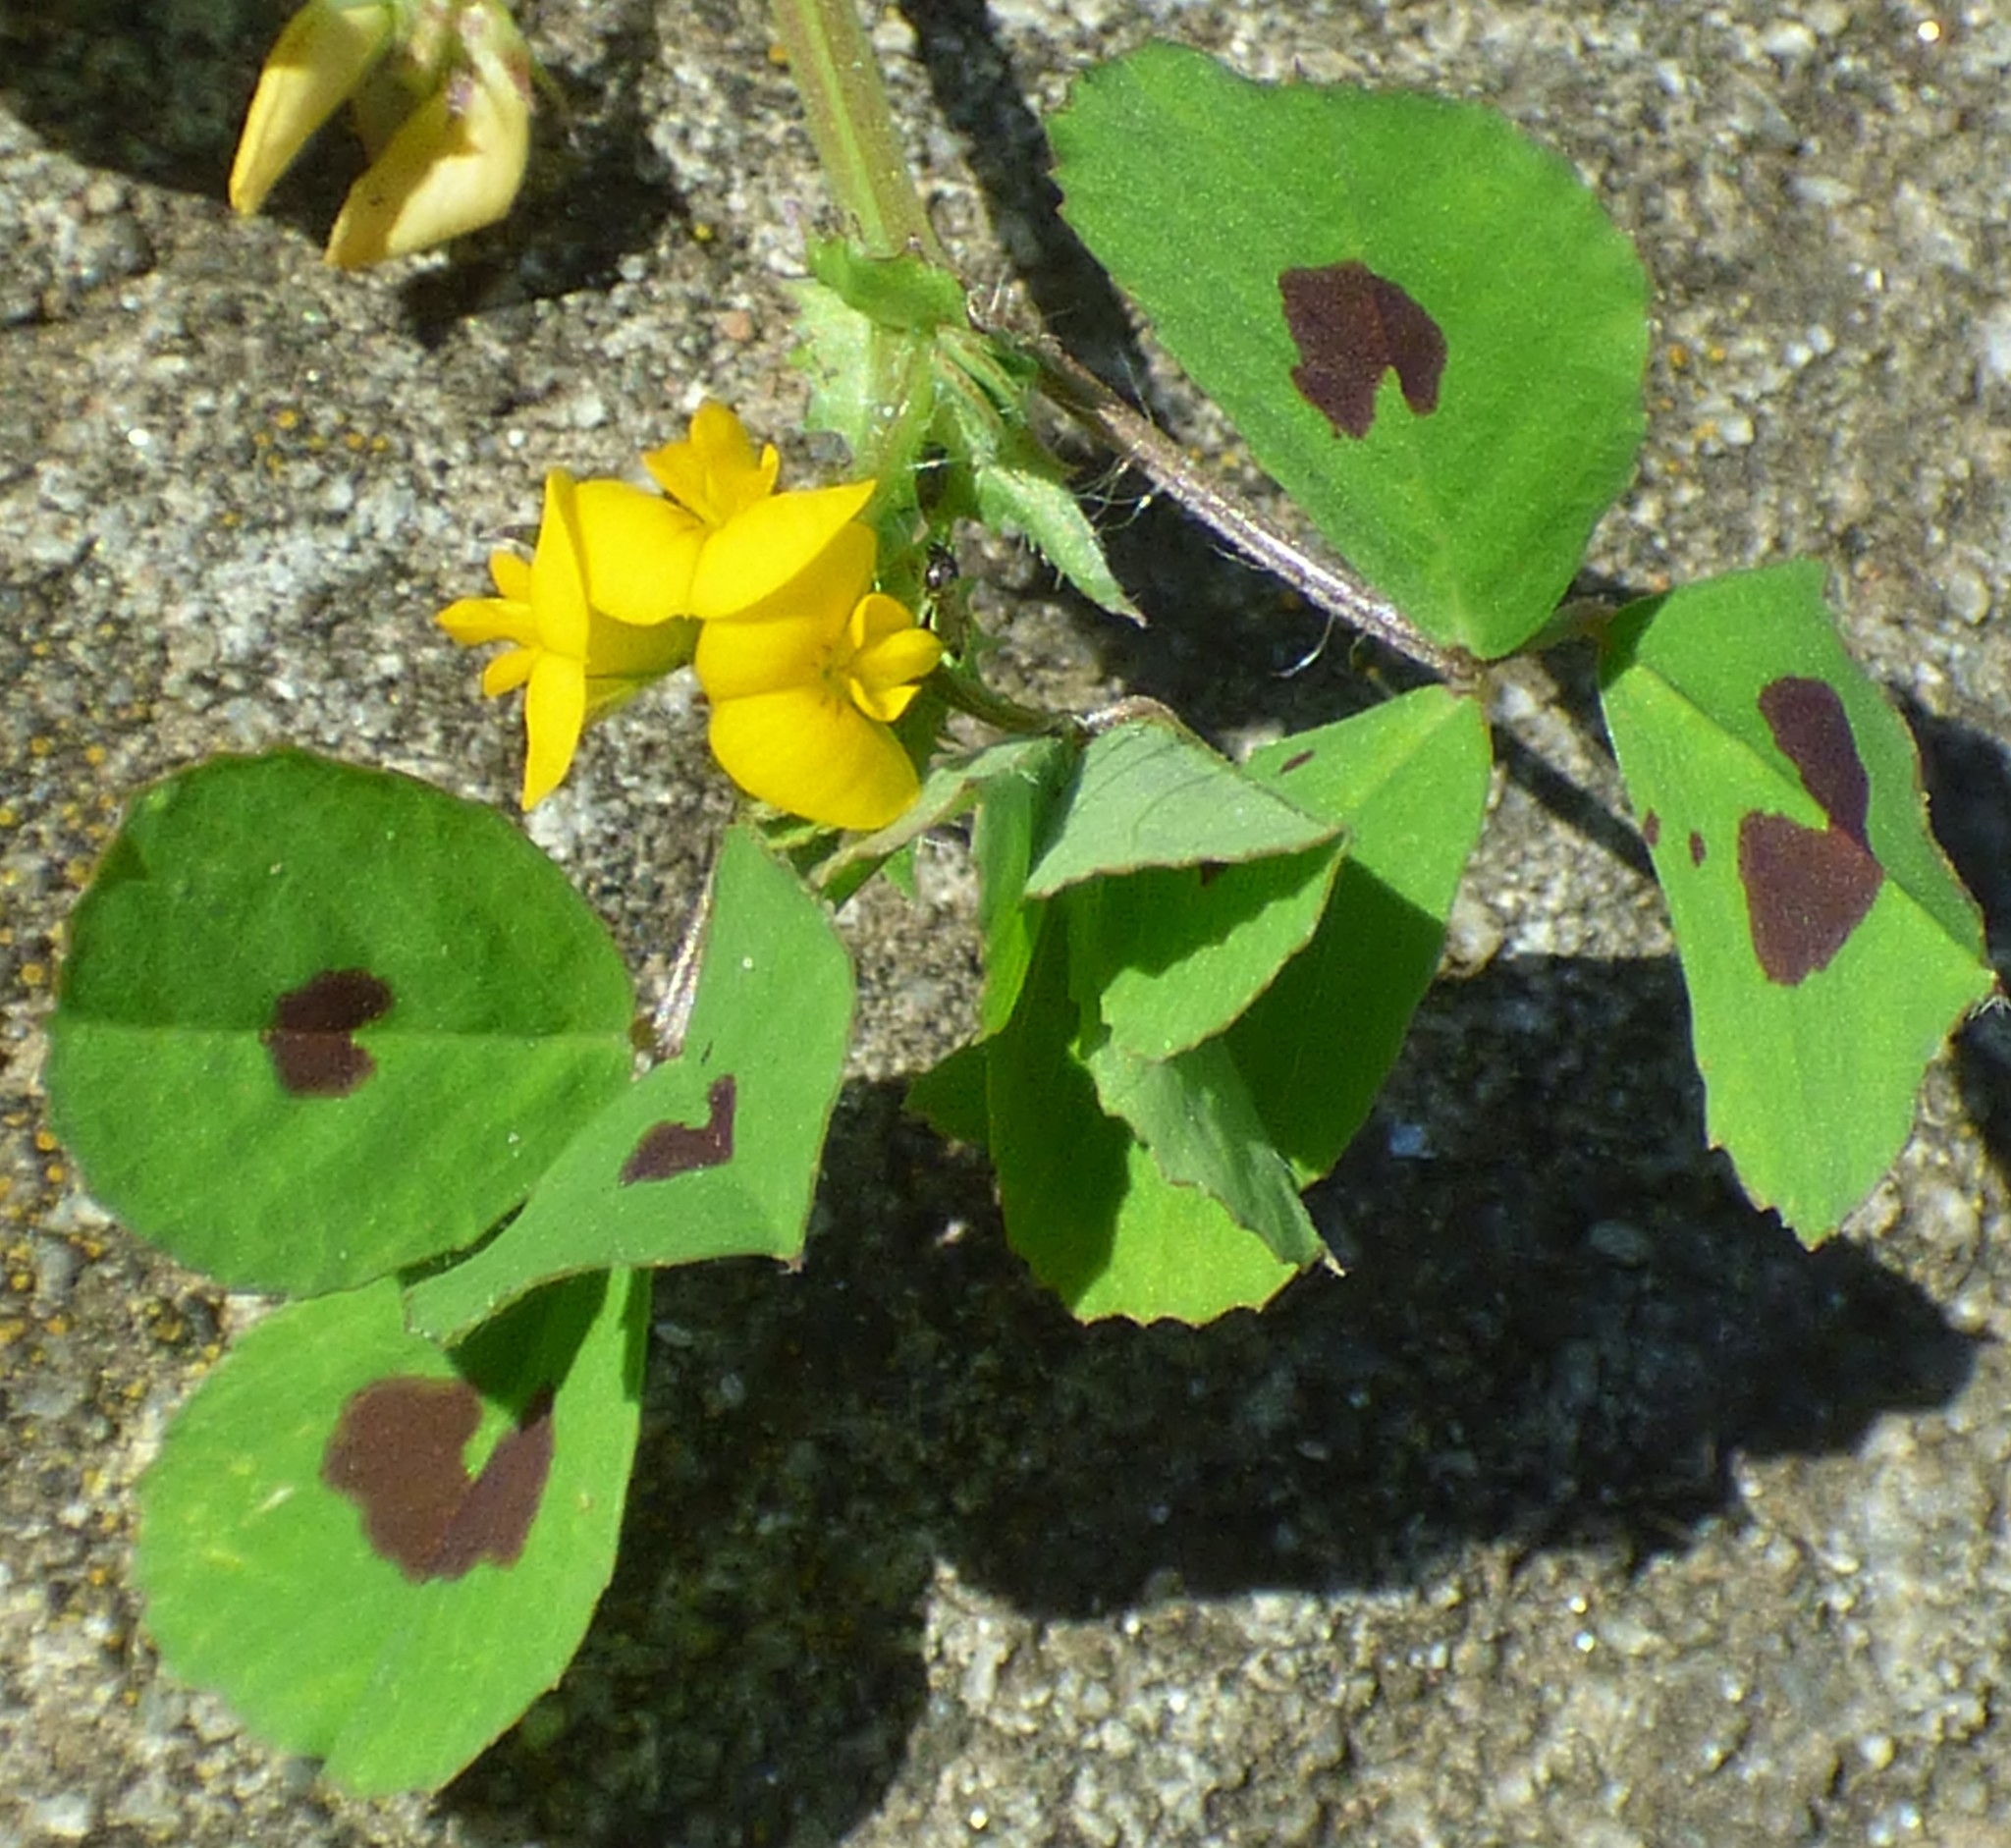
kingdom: Plantae
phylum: Tracheophyta
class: Magnoliopsida
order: Fabales
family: Fabaceae
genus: Medicago
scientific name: Medicago arabica
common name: Spotted medick
